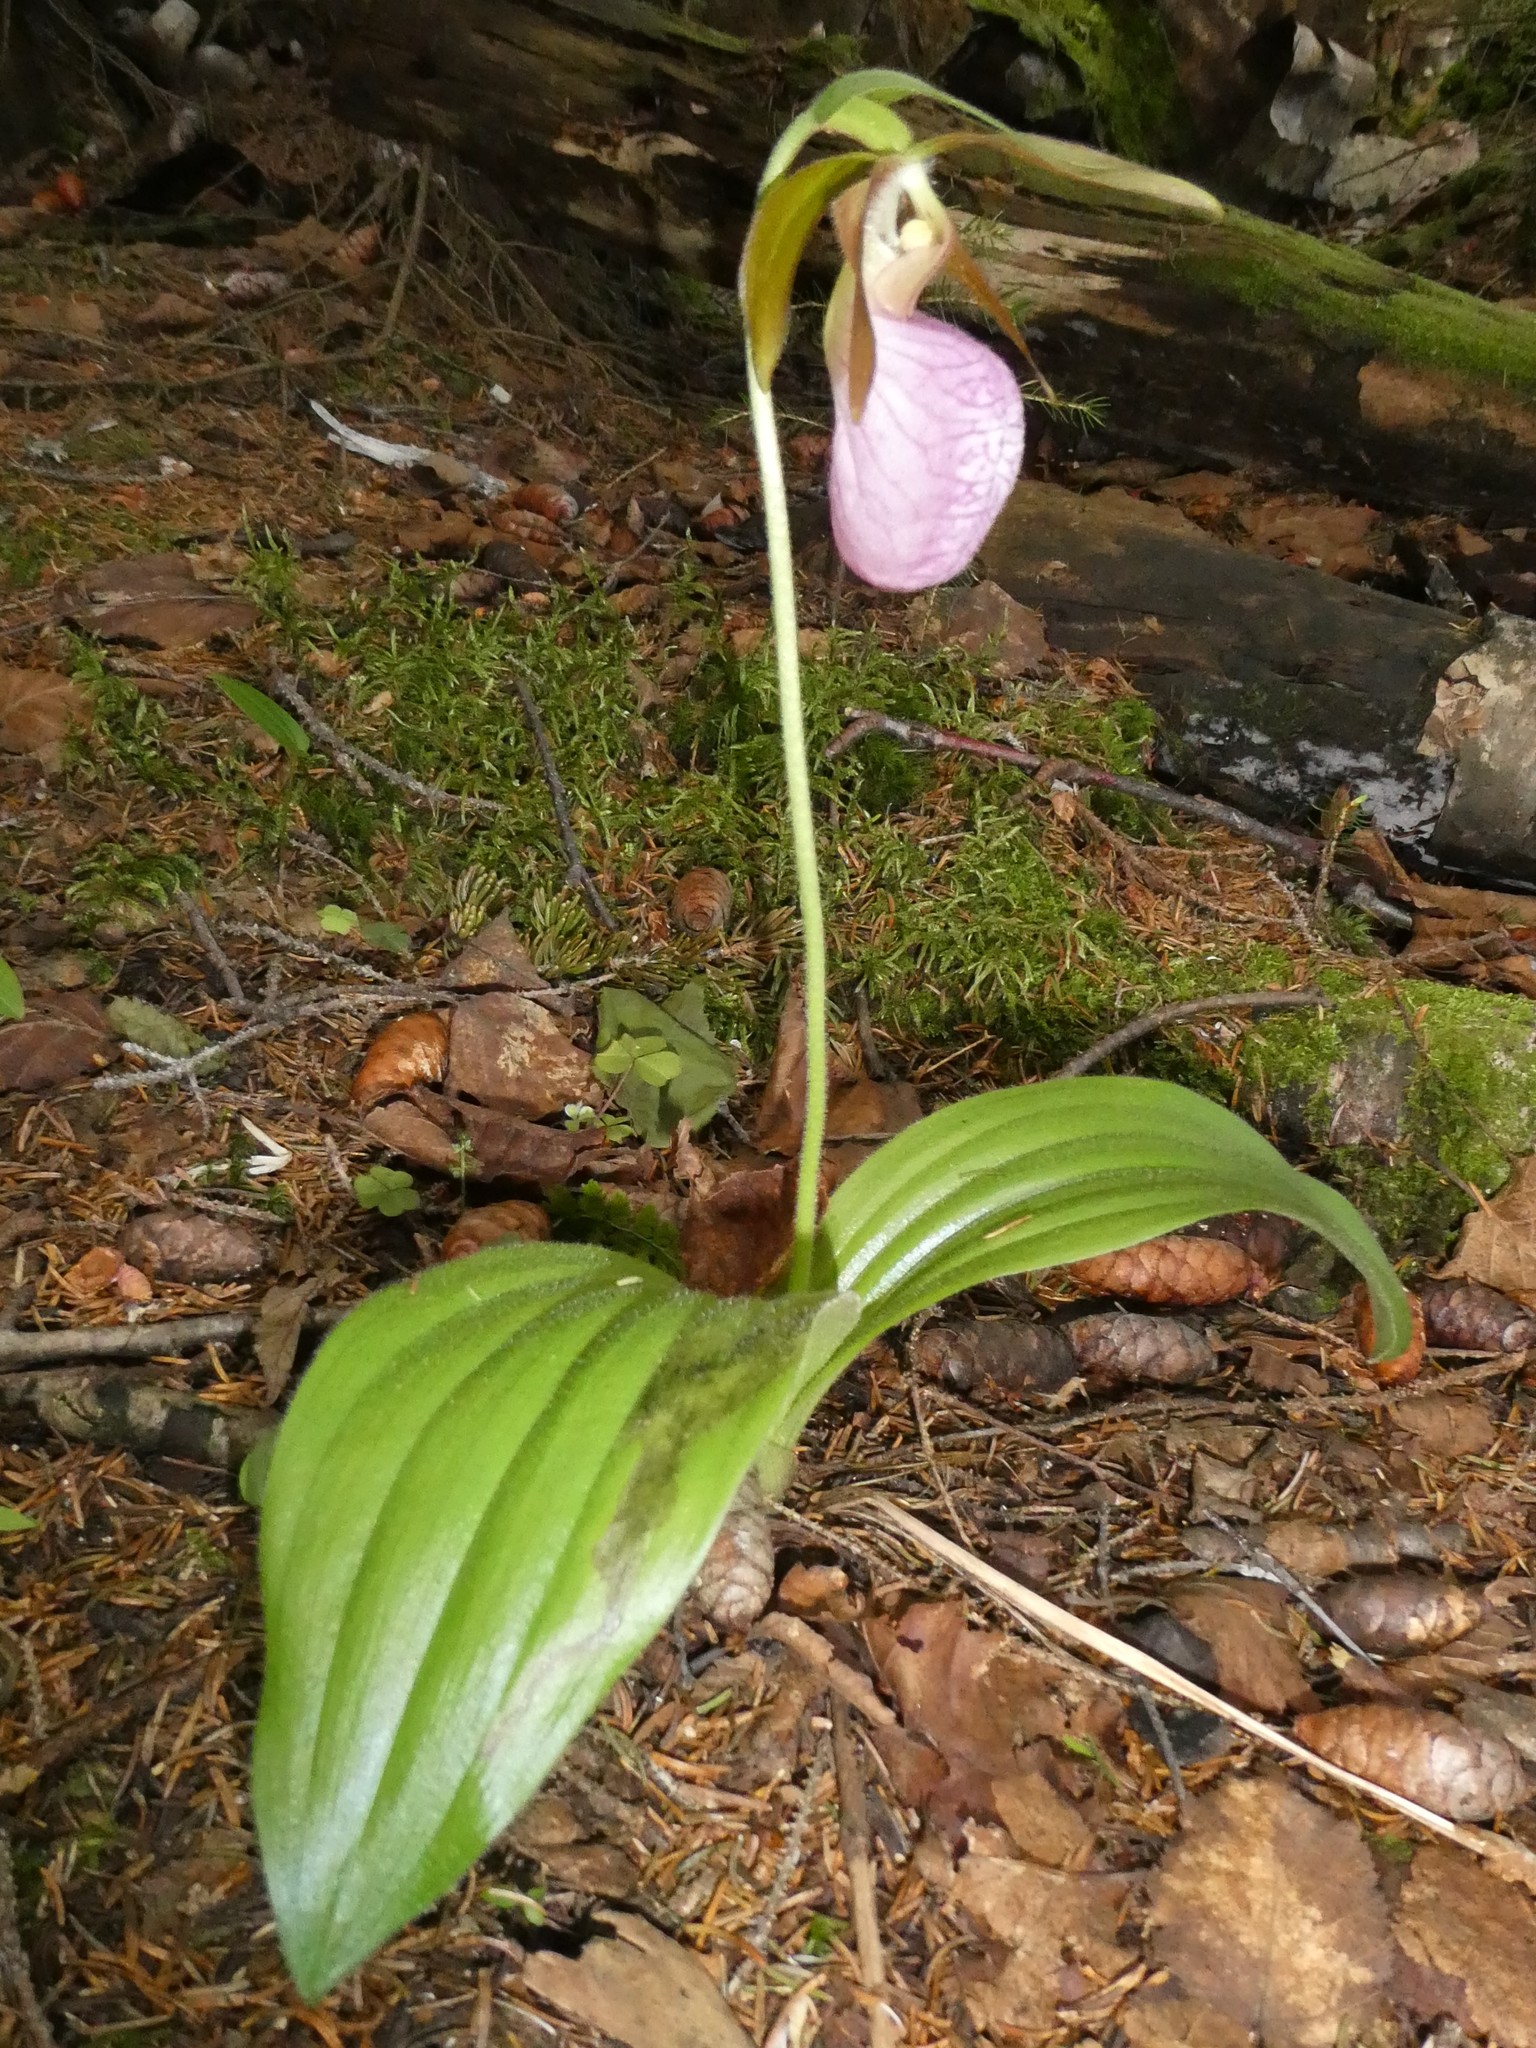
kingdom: Plantae
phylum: Tracheophyta
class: Liliopsida
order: Asparagales
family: Orchidaceae
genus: Cypripedium
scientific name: Cypripedium acaule
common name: Pink lady's-slipper
